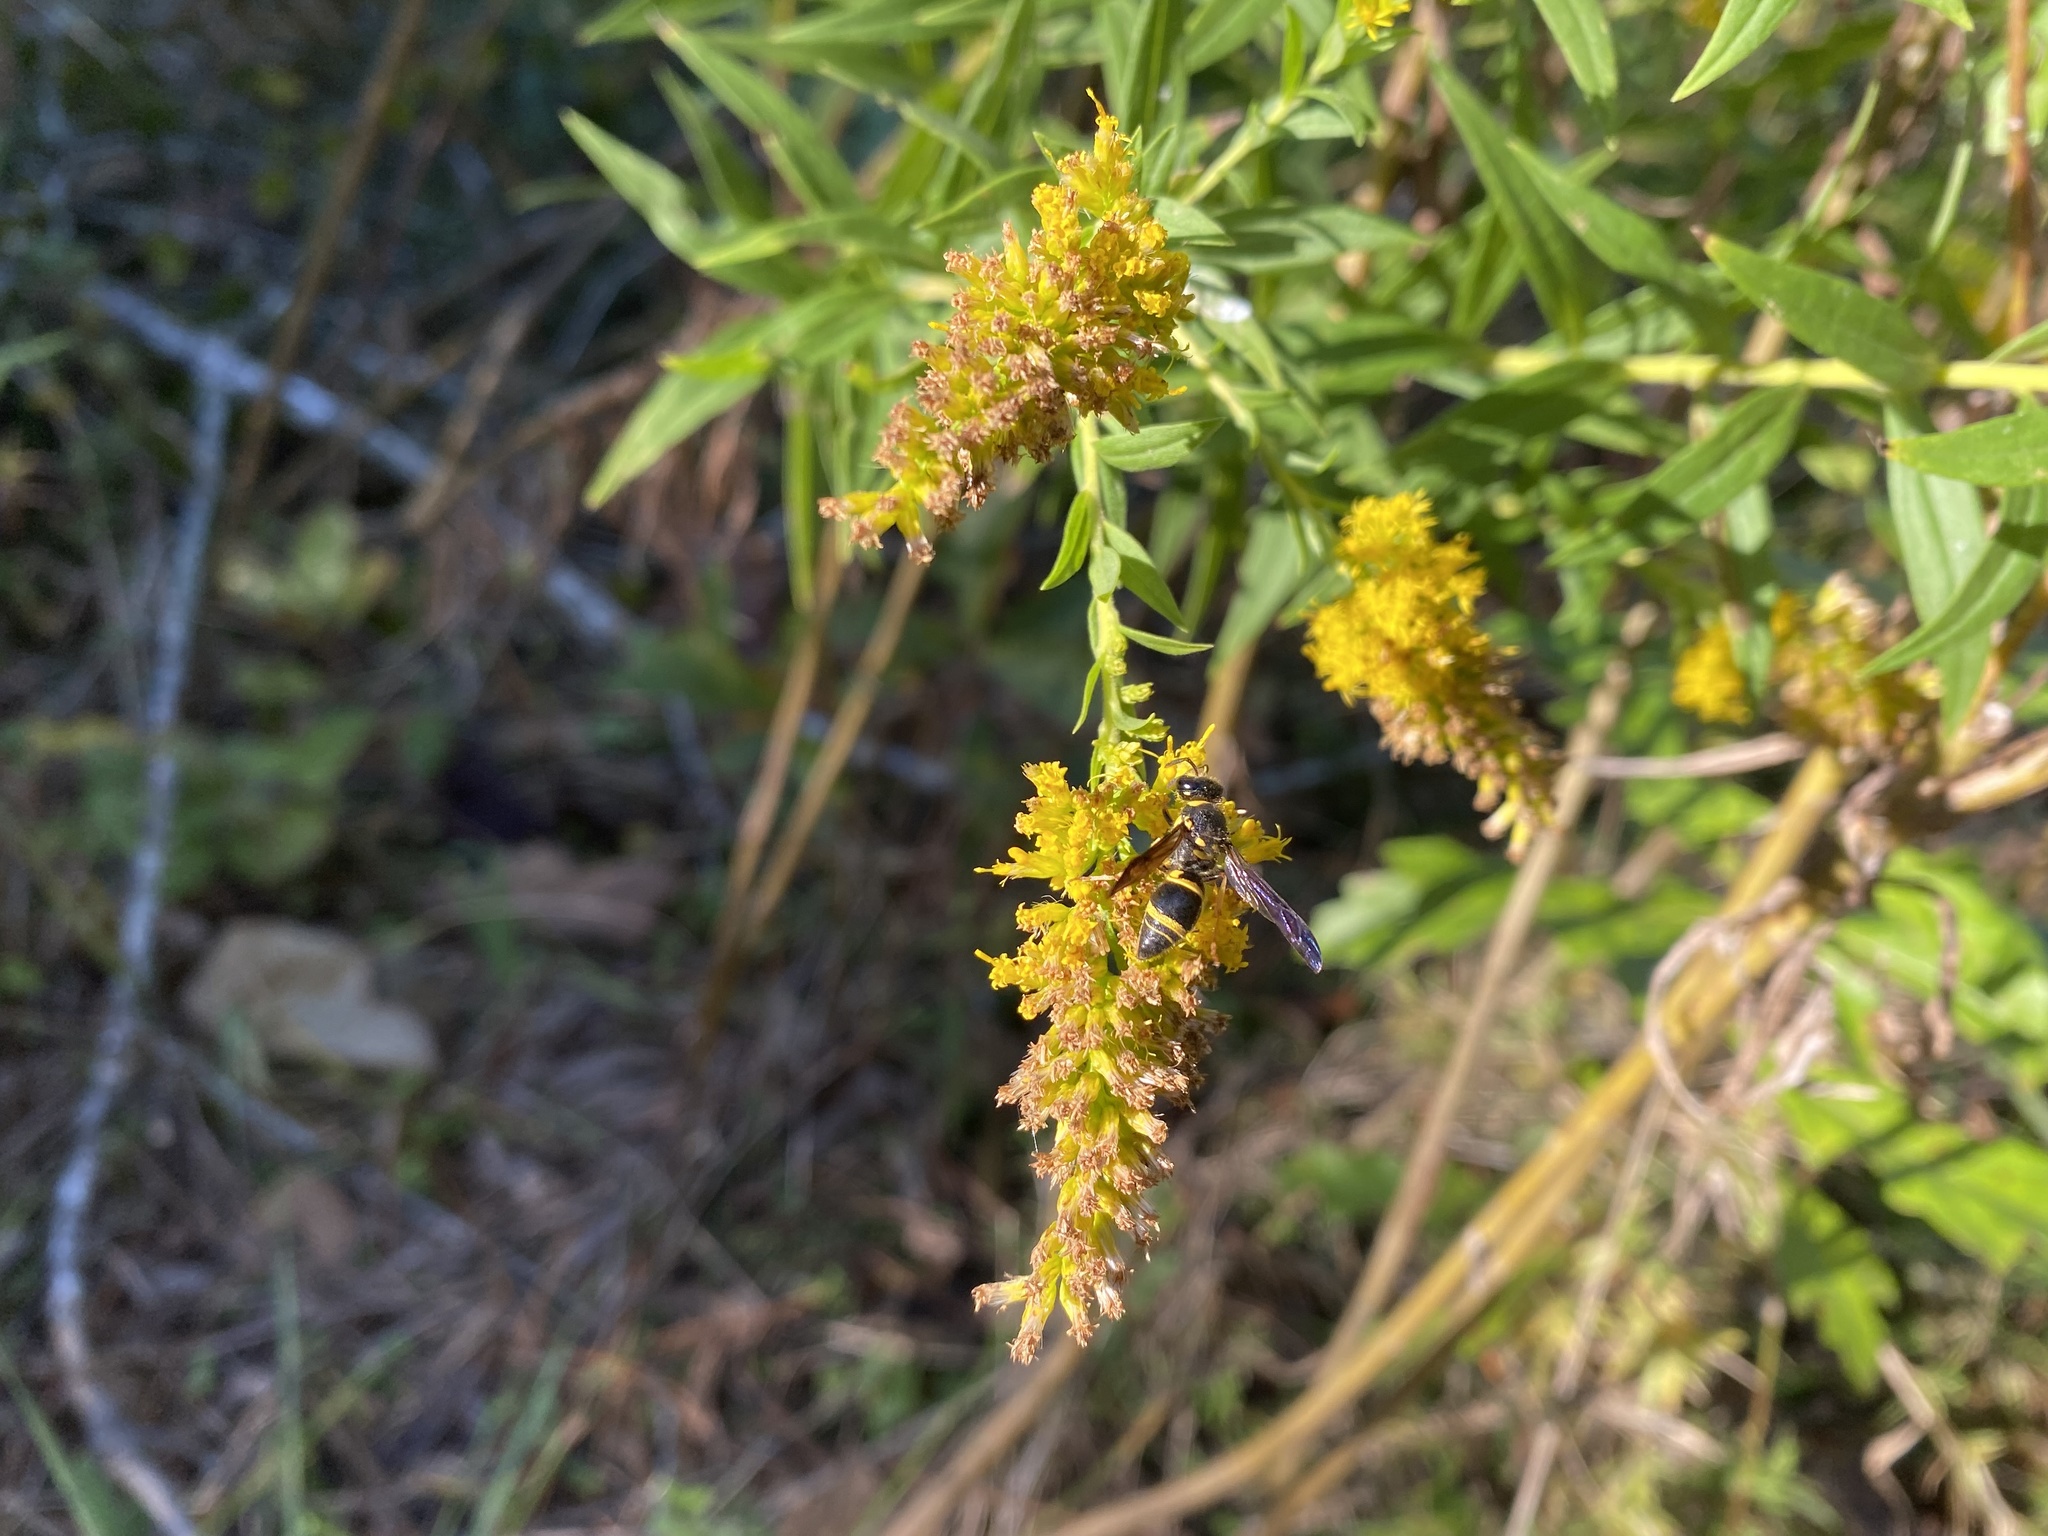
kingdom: Animalia
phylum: Arthropoda
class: Insecta
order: Hymenoptera
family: Vespidae
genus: Ancistrocerus
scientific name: Ancistrocerus campestris
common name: Smiling mason wasp
